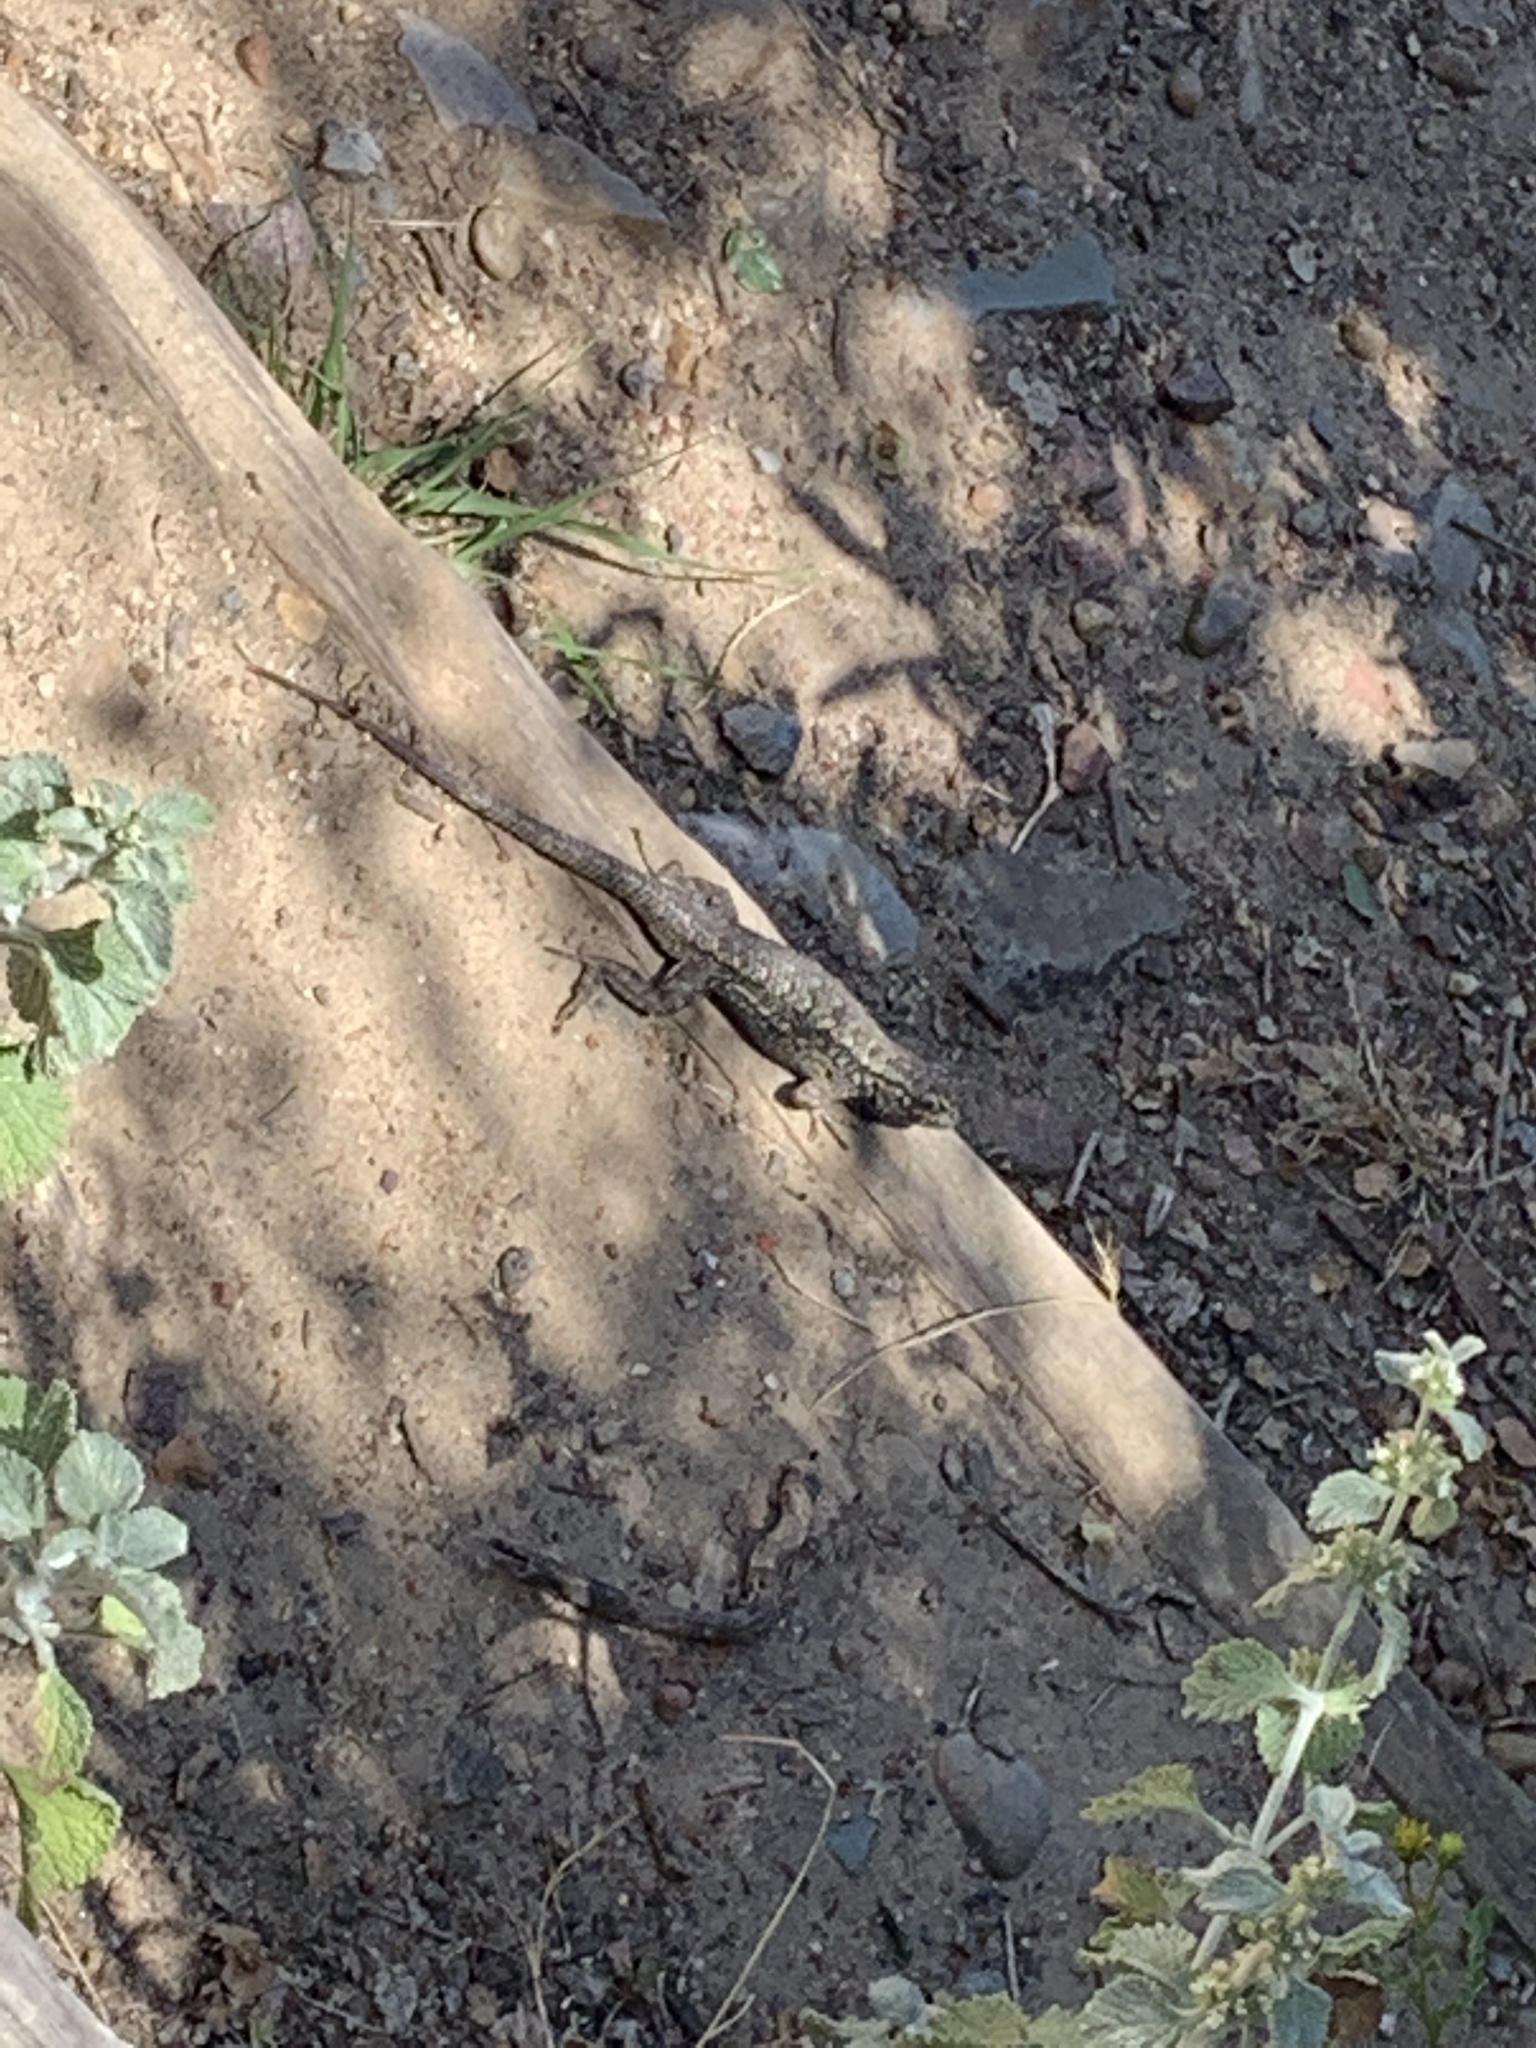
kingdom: Animalia
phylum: Chordata
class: Squamata
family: Phrynosomatidae
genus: Sceloporus
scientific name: Sceloporus occidentalis
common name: Western fence lizard
